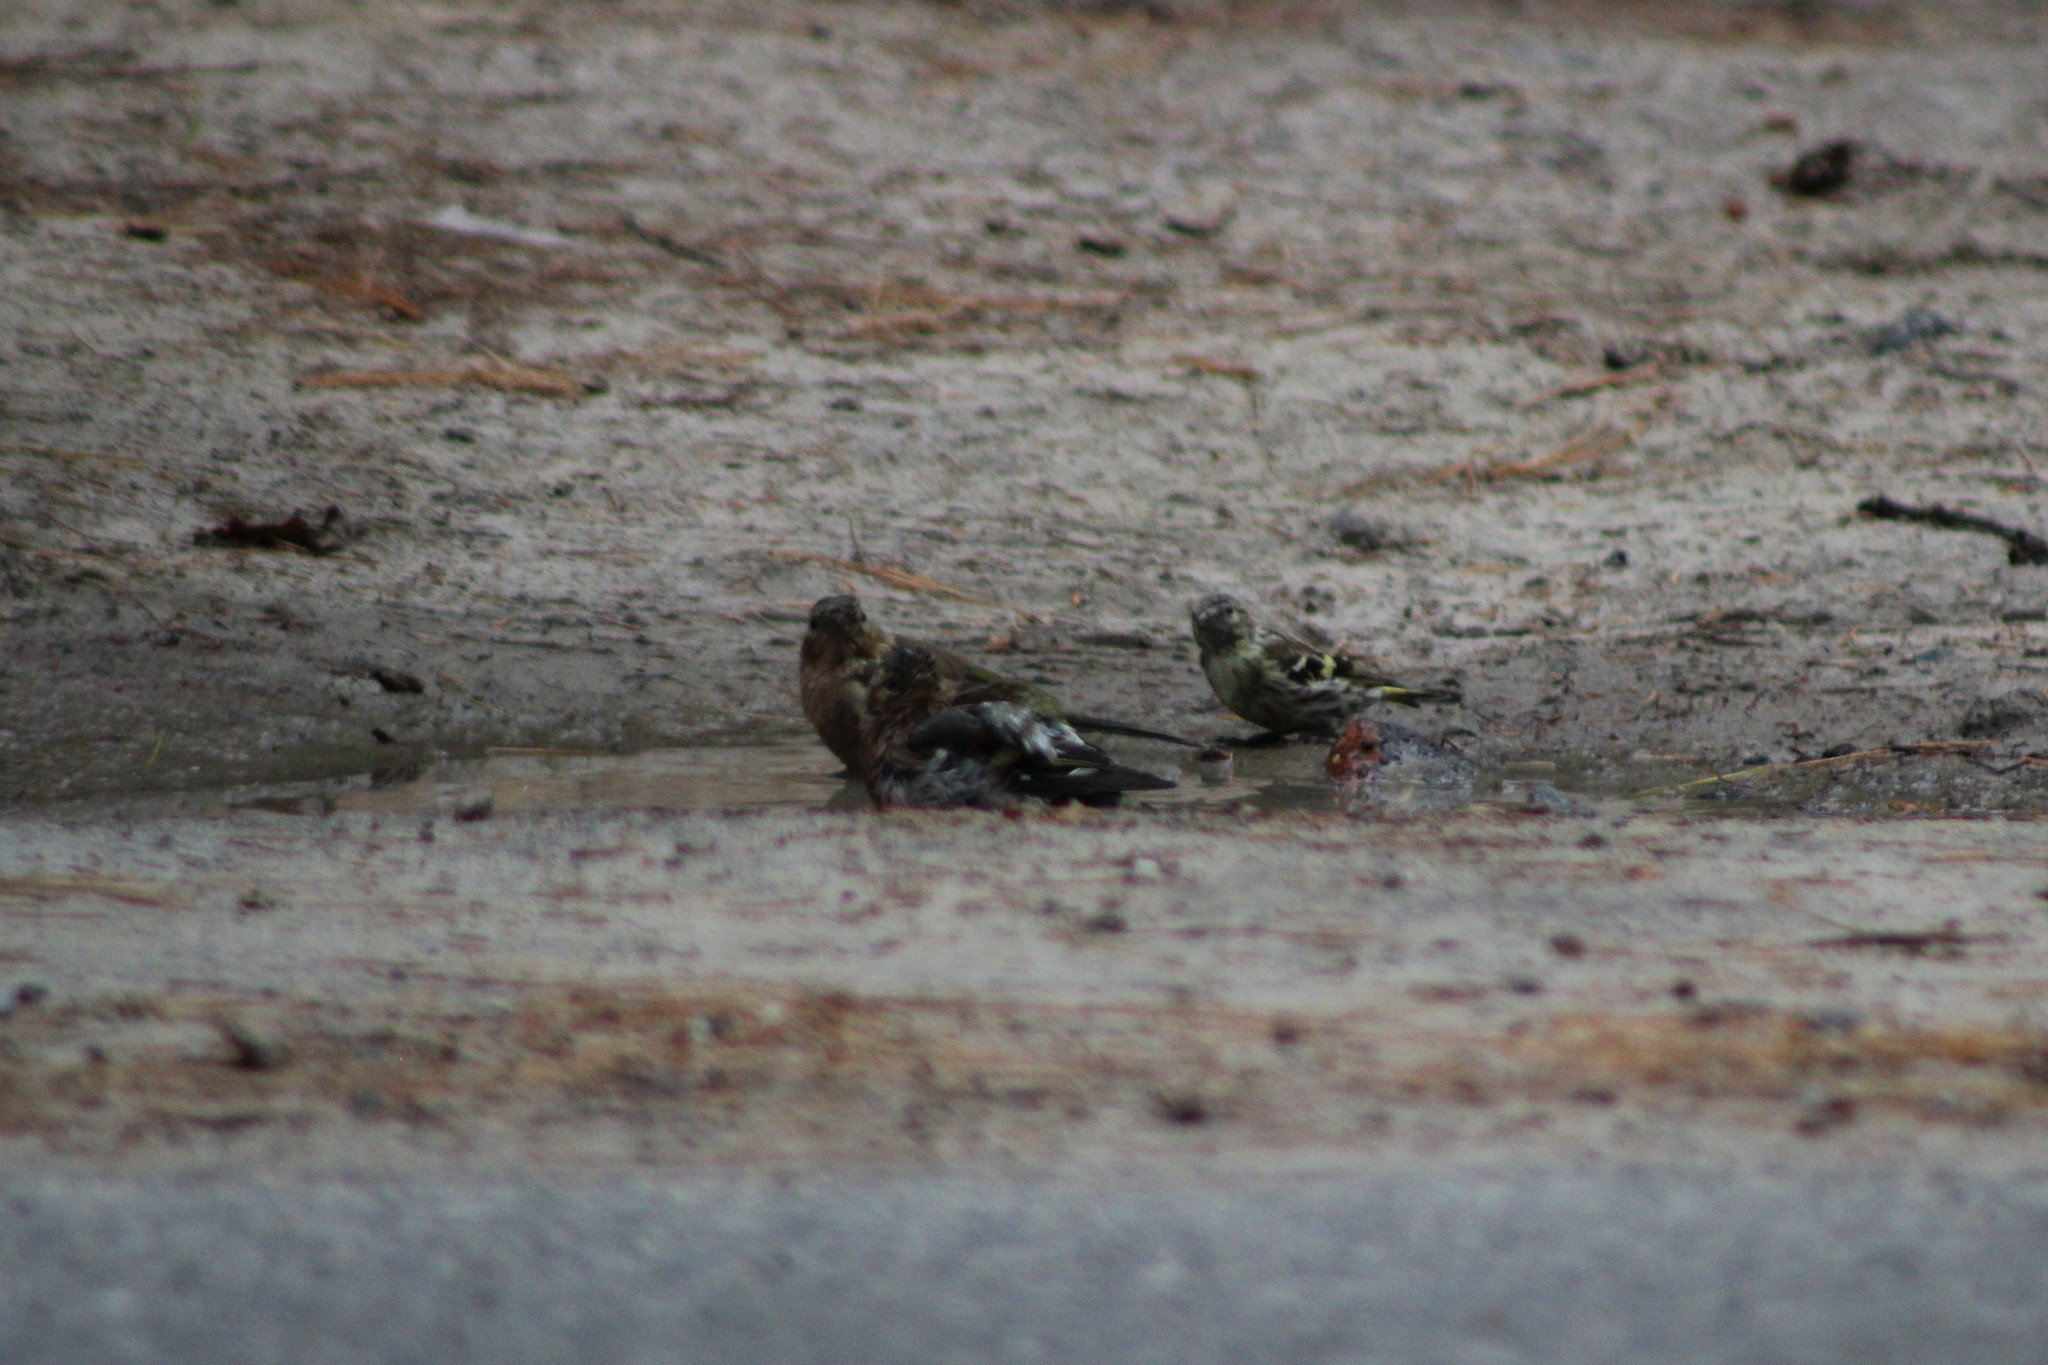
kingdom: Animalia
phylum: Chordata
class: Aves
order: Passeriformes
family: Fringillidae
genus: Fringilla
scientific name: Fringilla coelebs
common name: Common chaffinch
